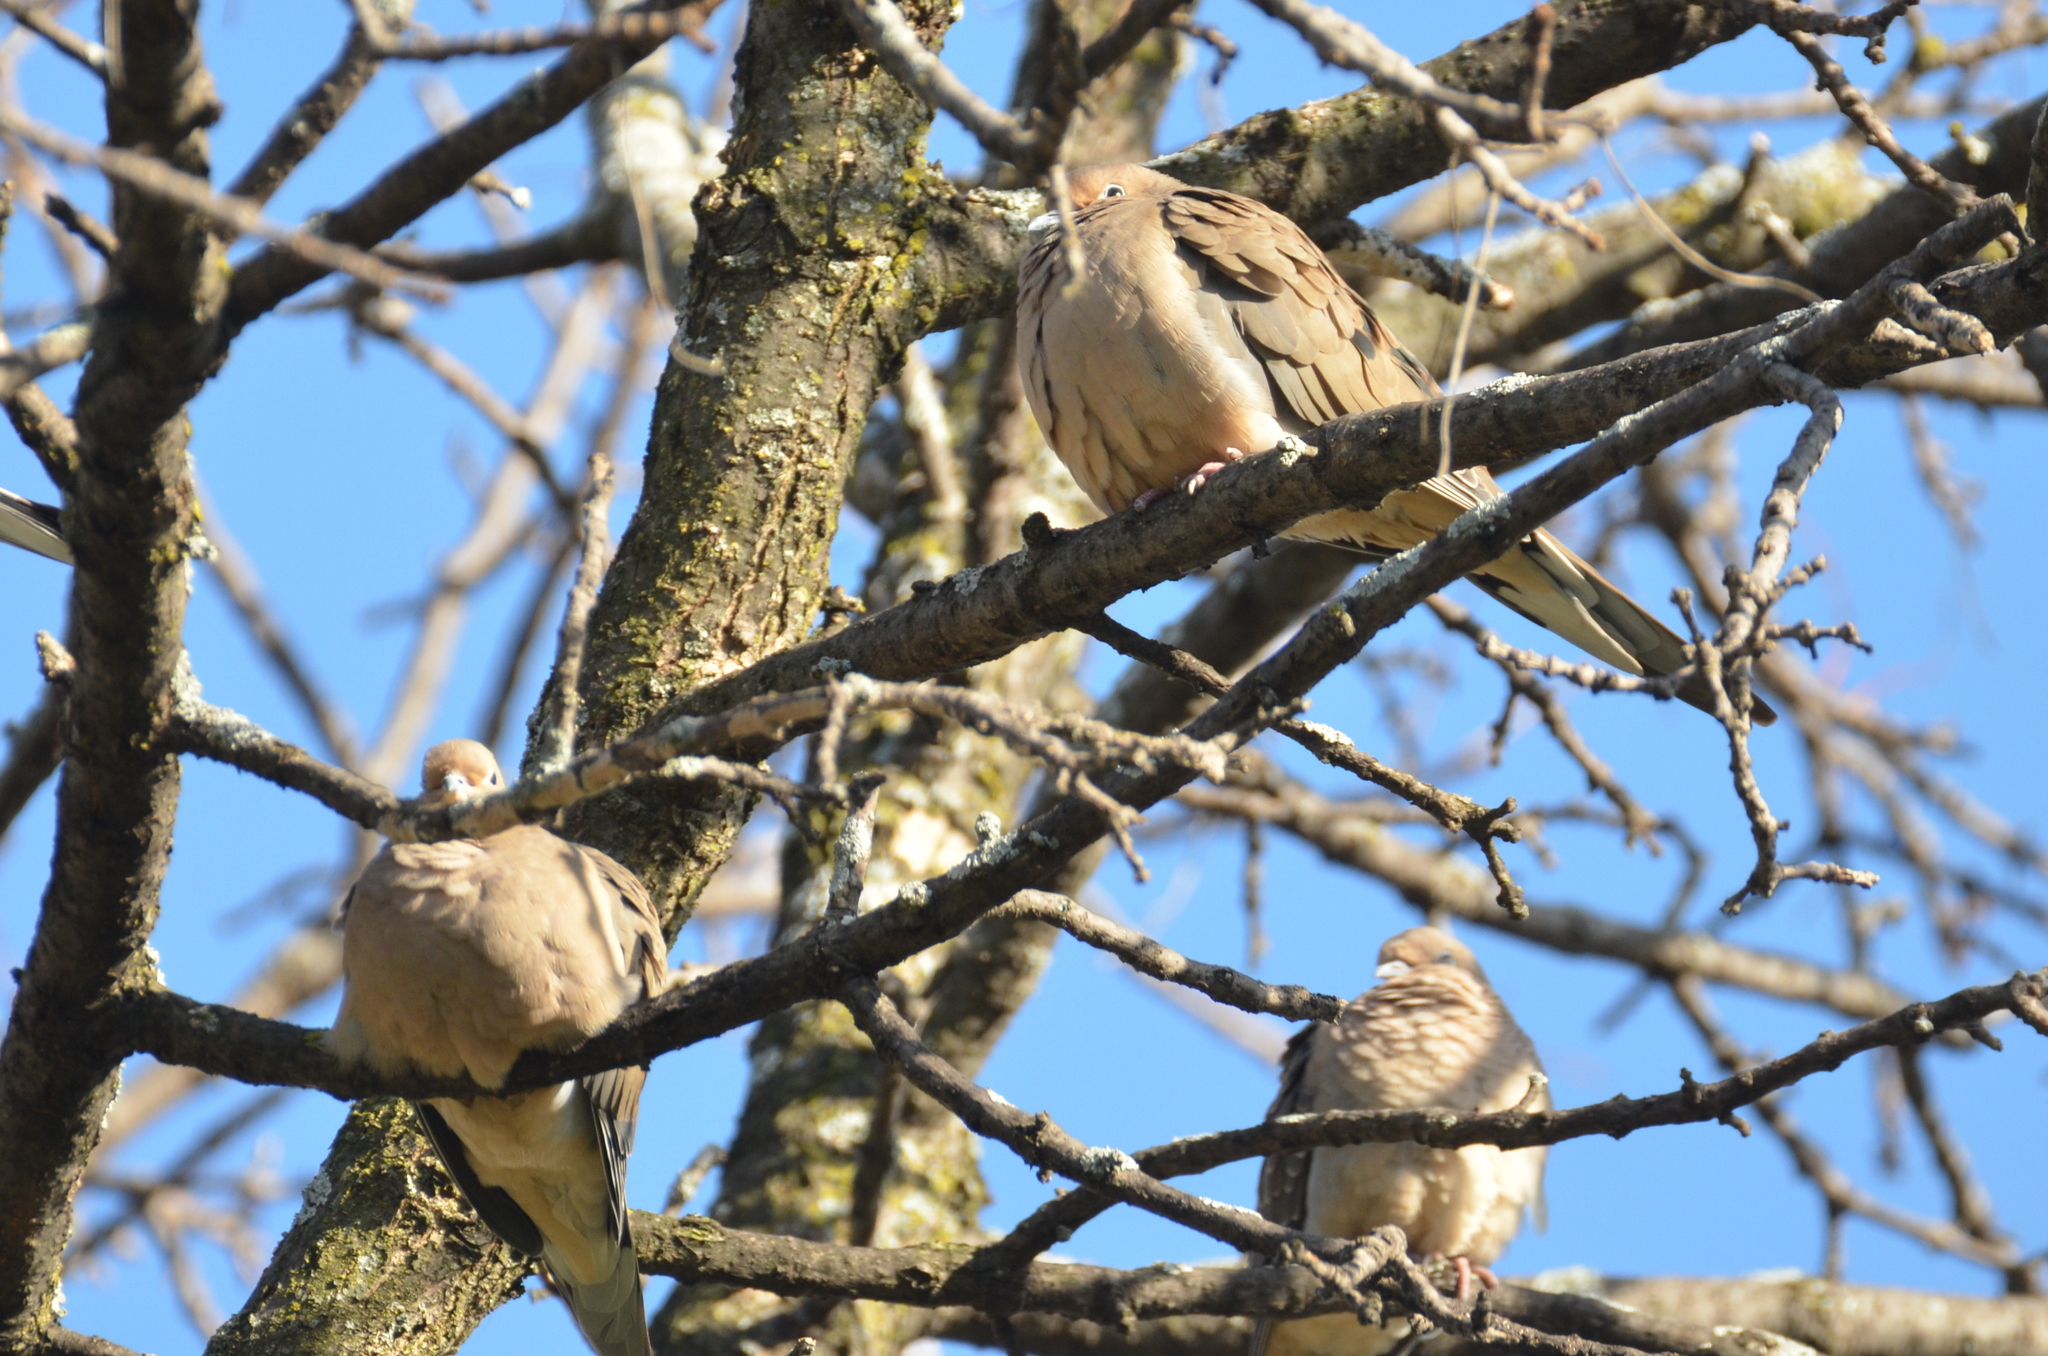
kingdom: Animalia
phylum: Chordata
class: Aves
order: Columbiformes
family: Columbidae
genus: Zenaida
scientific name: Zenaida macroura
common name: Mourning dove
